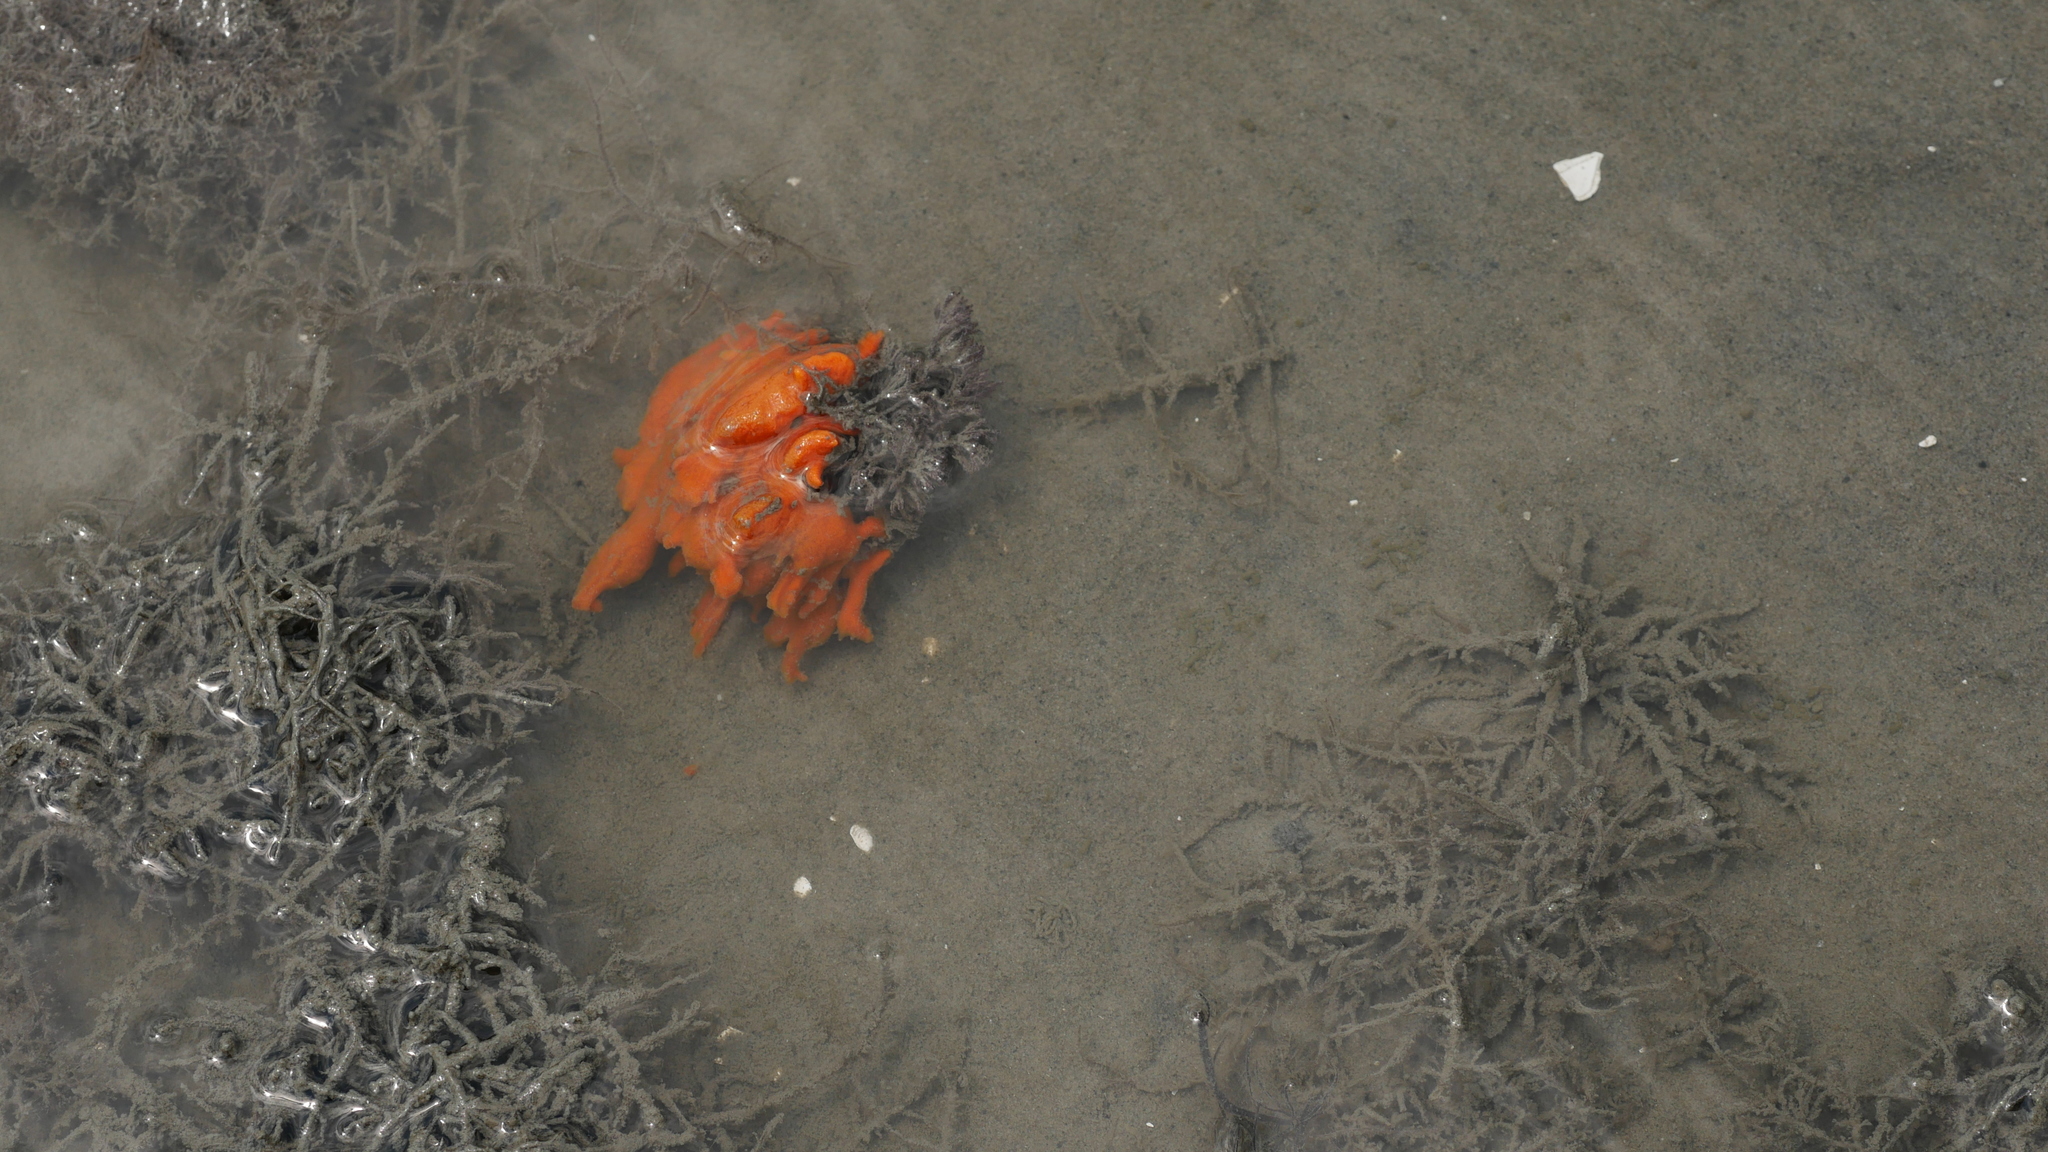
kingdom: Animalia
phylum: Porifera
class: Demospongiae
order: Suberitida
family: Halichondriidae
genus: Hymeniacidon
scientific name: Hymeniacidon heliophila
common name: Diurnal horny sponge
